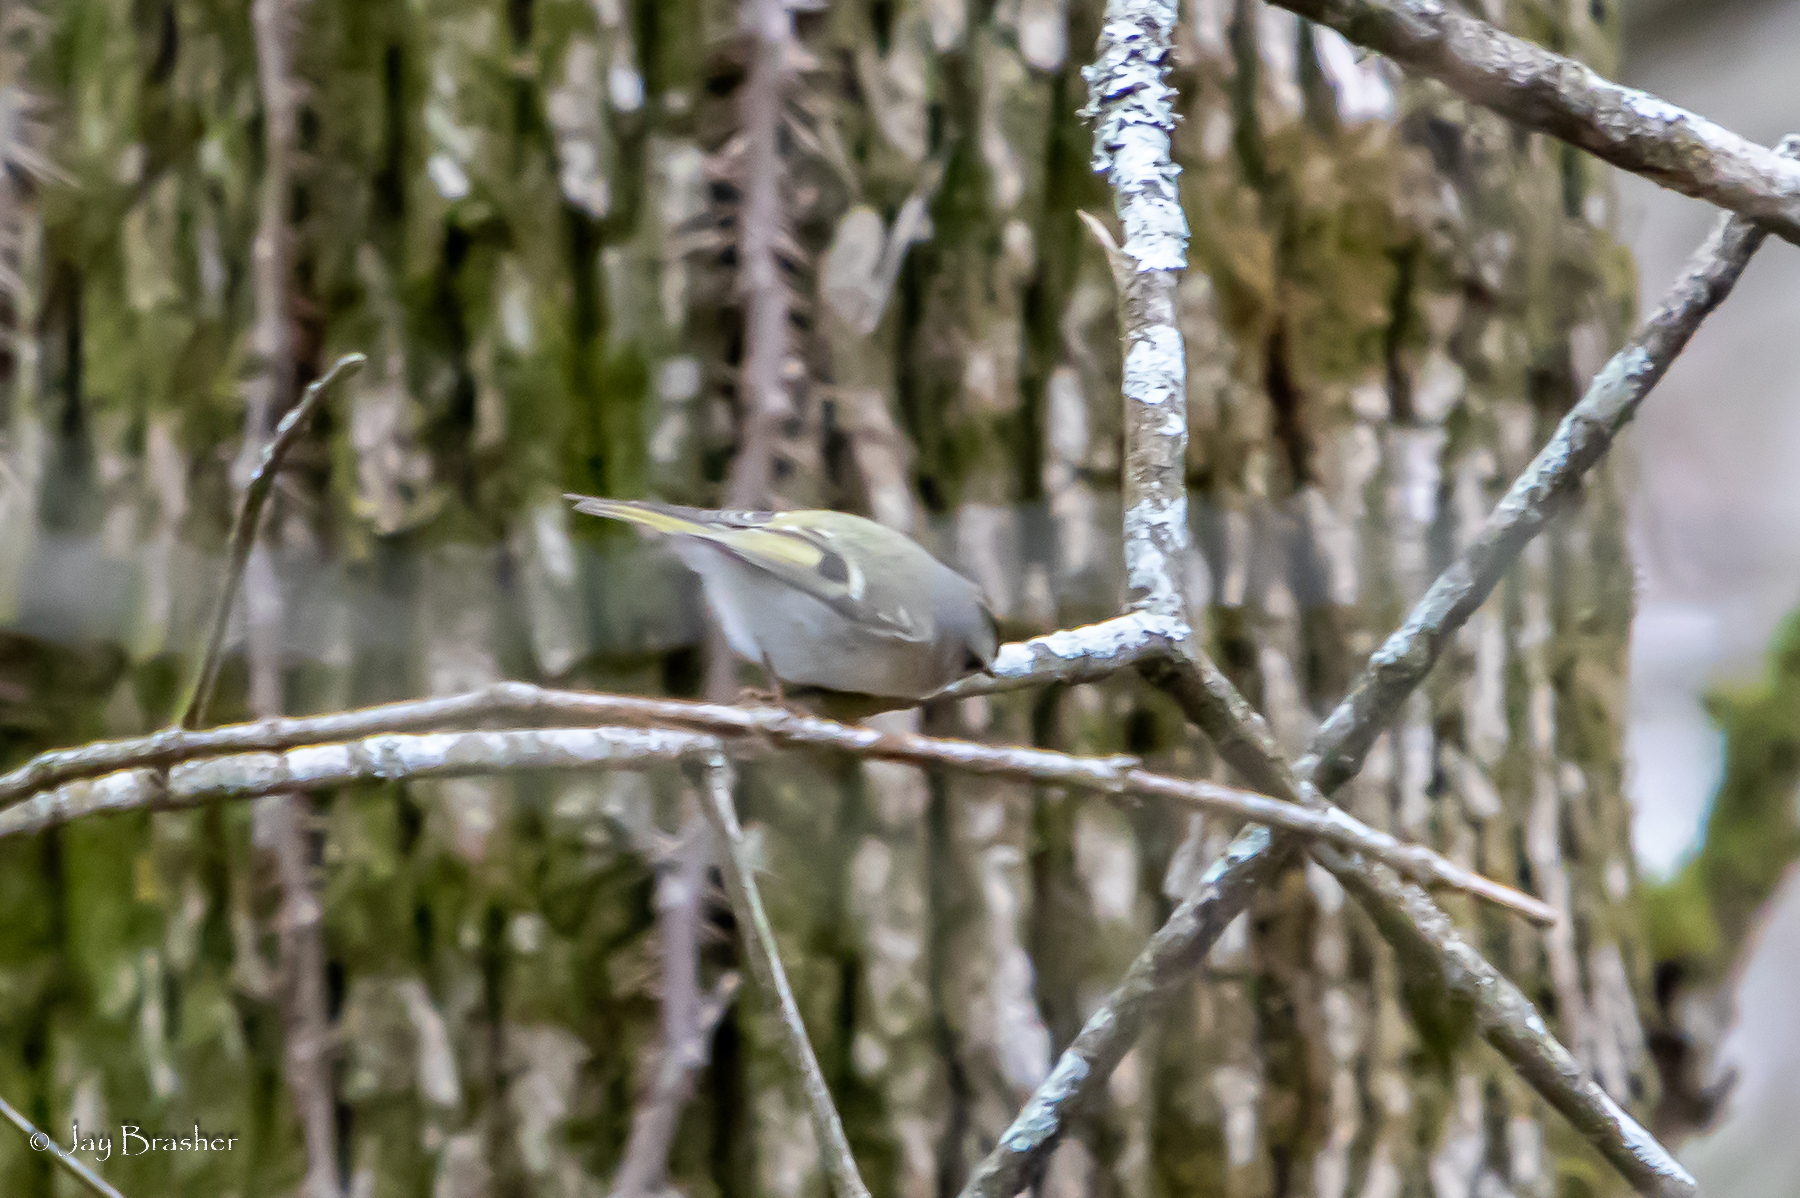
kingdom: Animalia
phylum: Chordata
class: Aves
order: Passeriformes
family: Regulidae
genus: Regulus
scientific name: Regulus satrapa
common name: Golden-crowned kinglet
